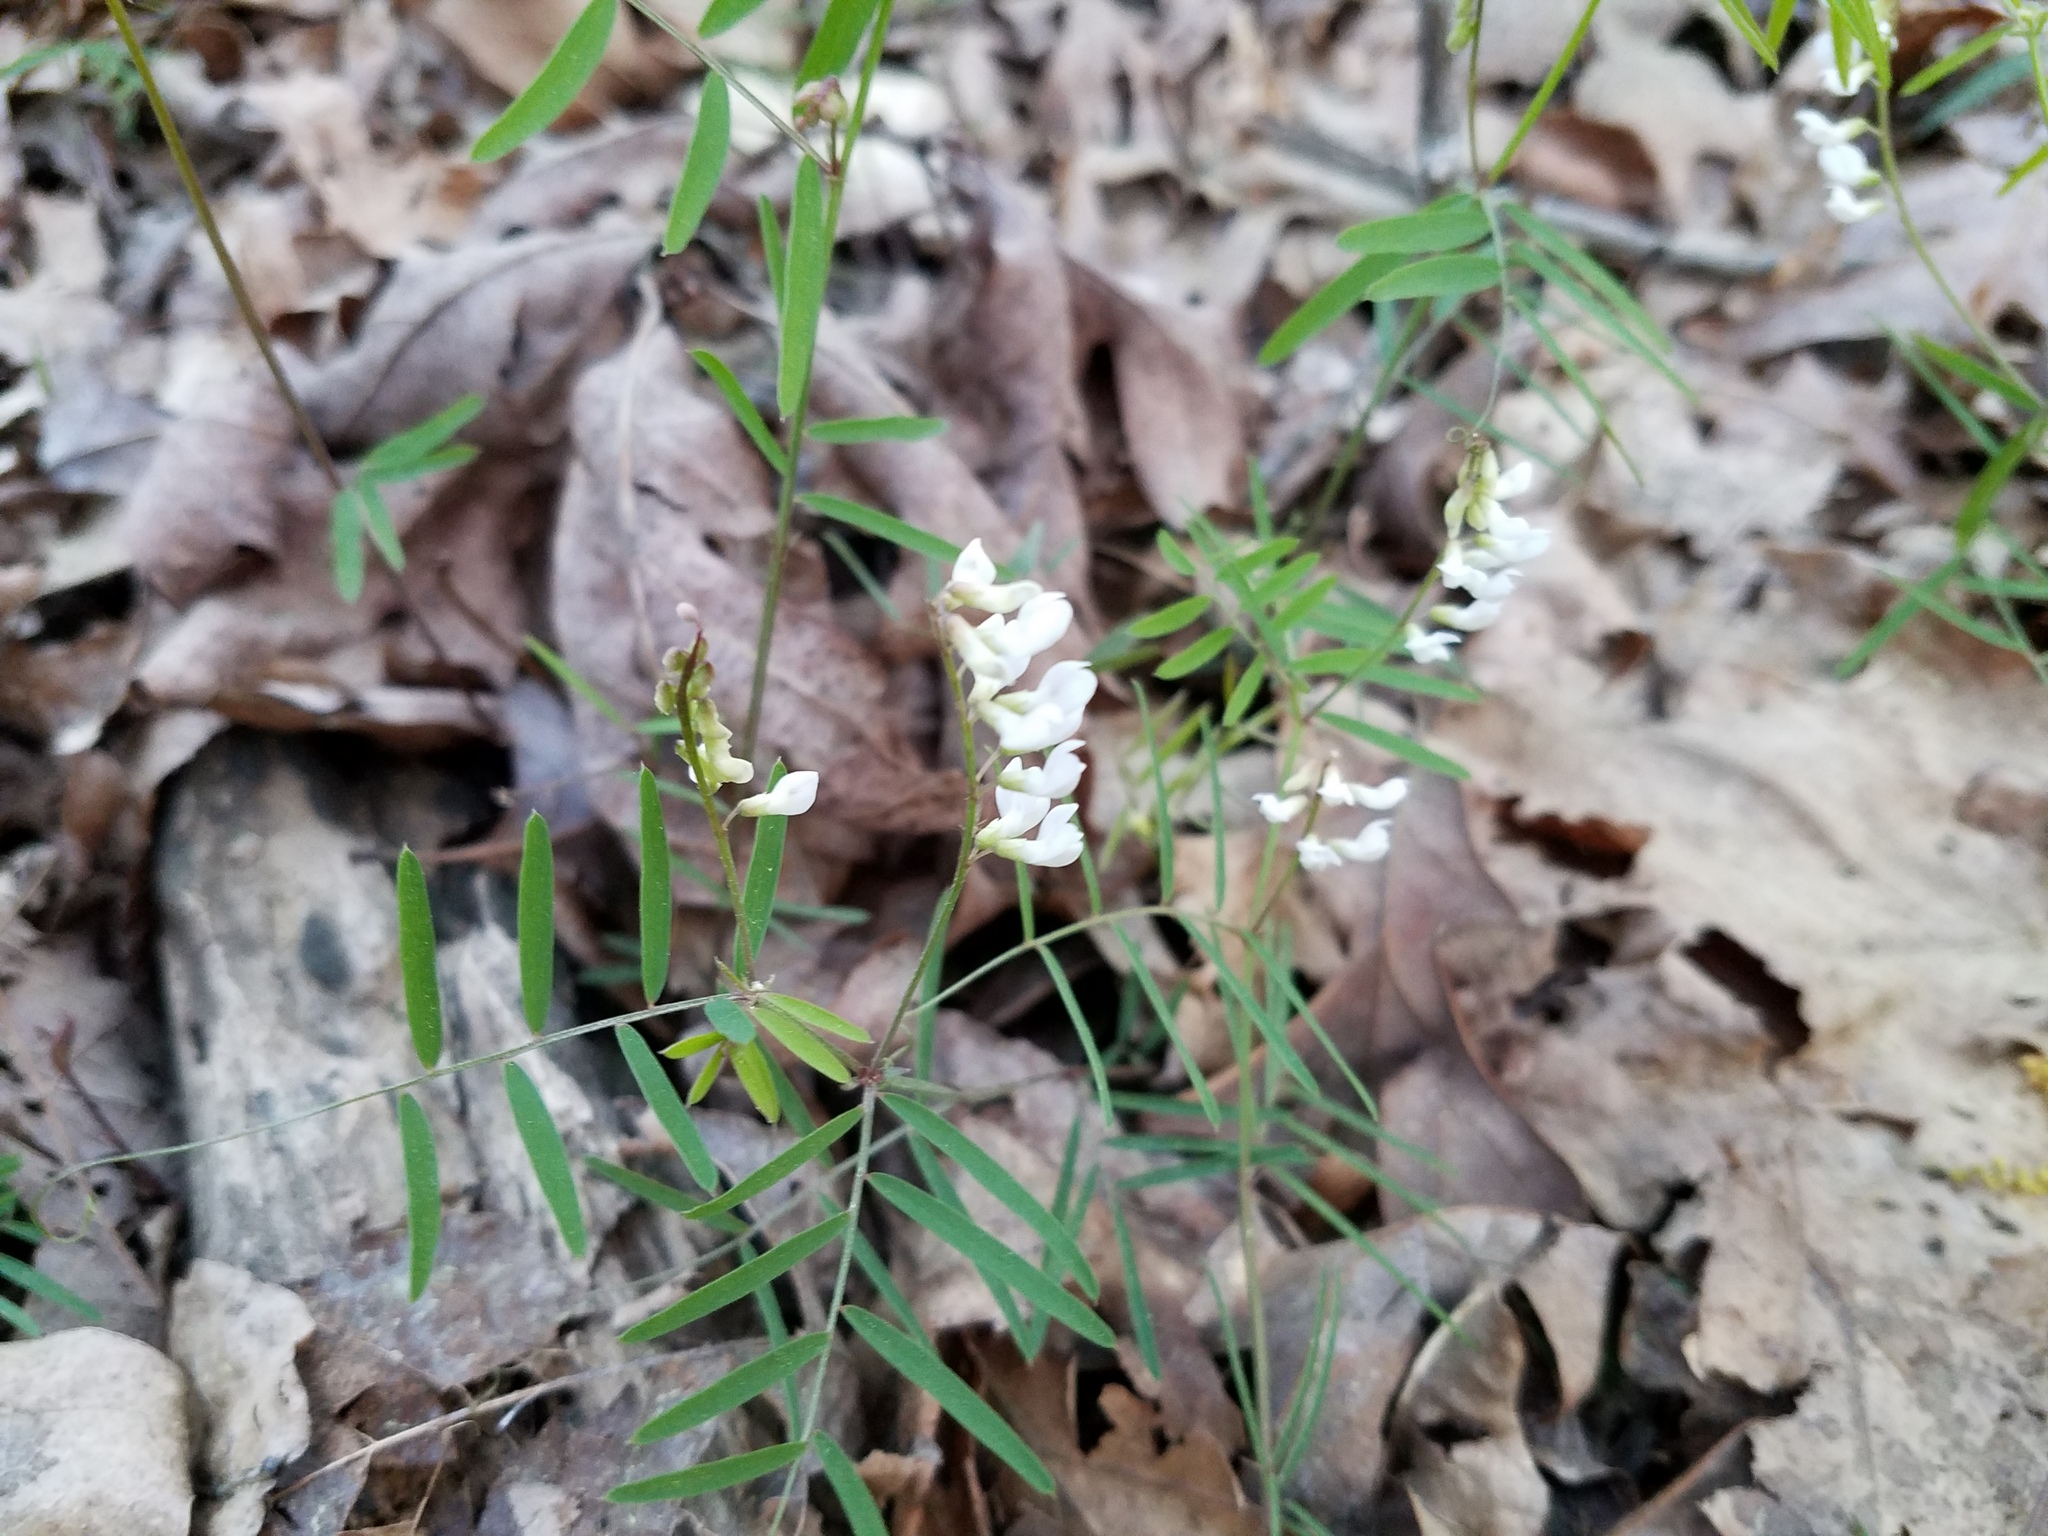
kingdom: Plantae
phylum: Tracheophyta
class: Magnoliopsida
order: Fabales
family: Fabaceae
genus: Vicia
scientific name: Vicia caroliniana
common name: Carolina vetch
